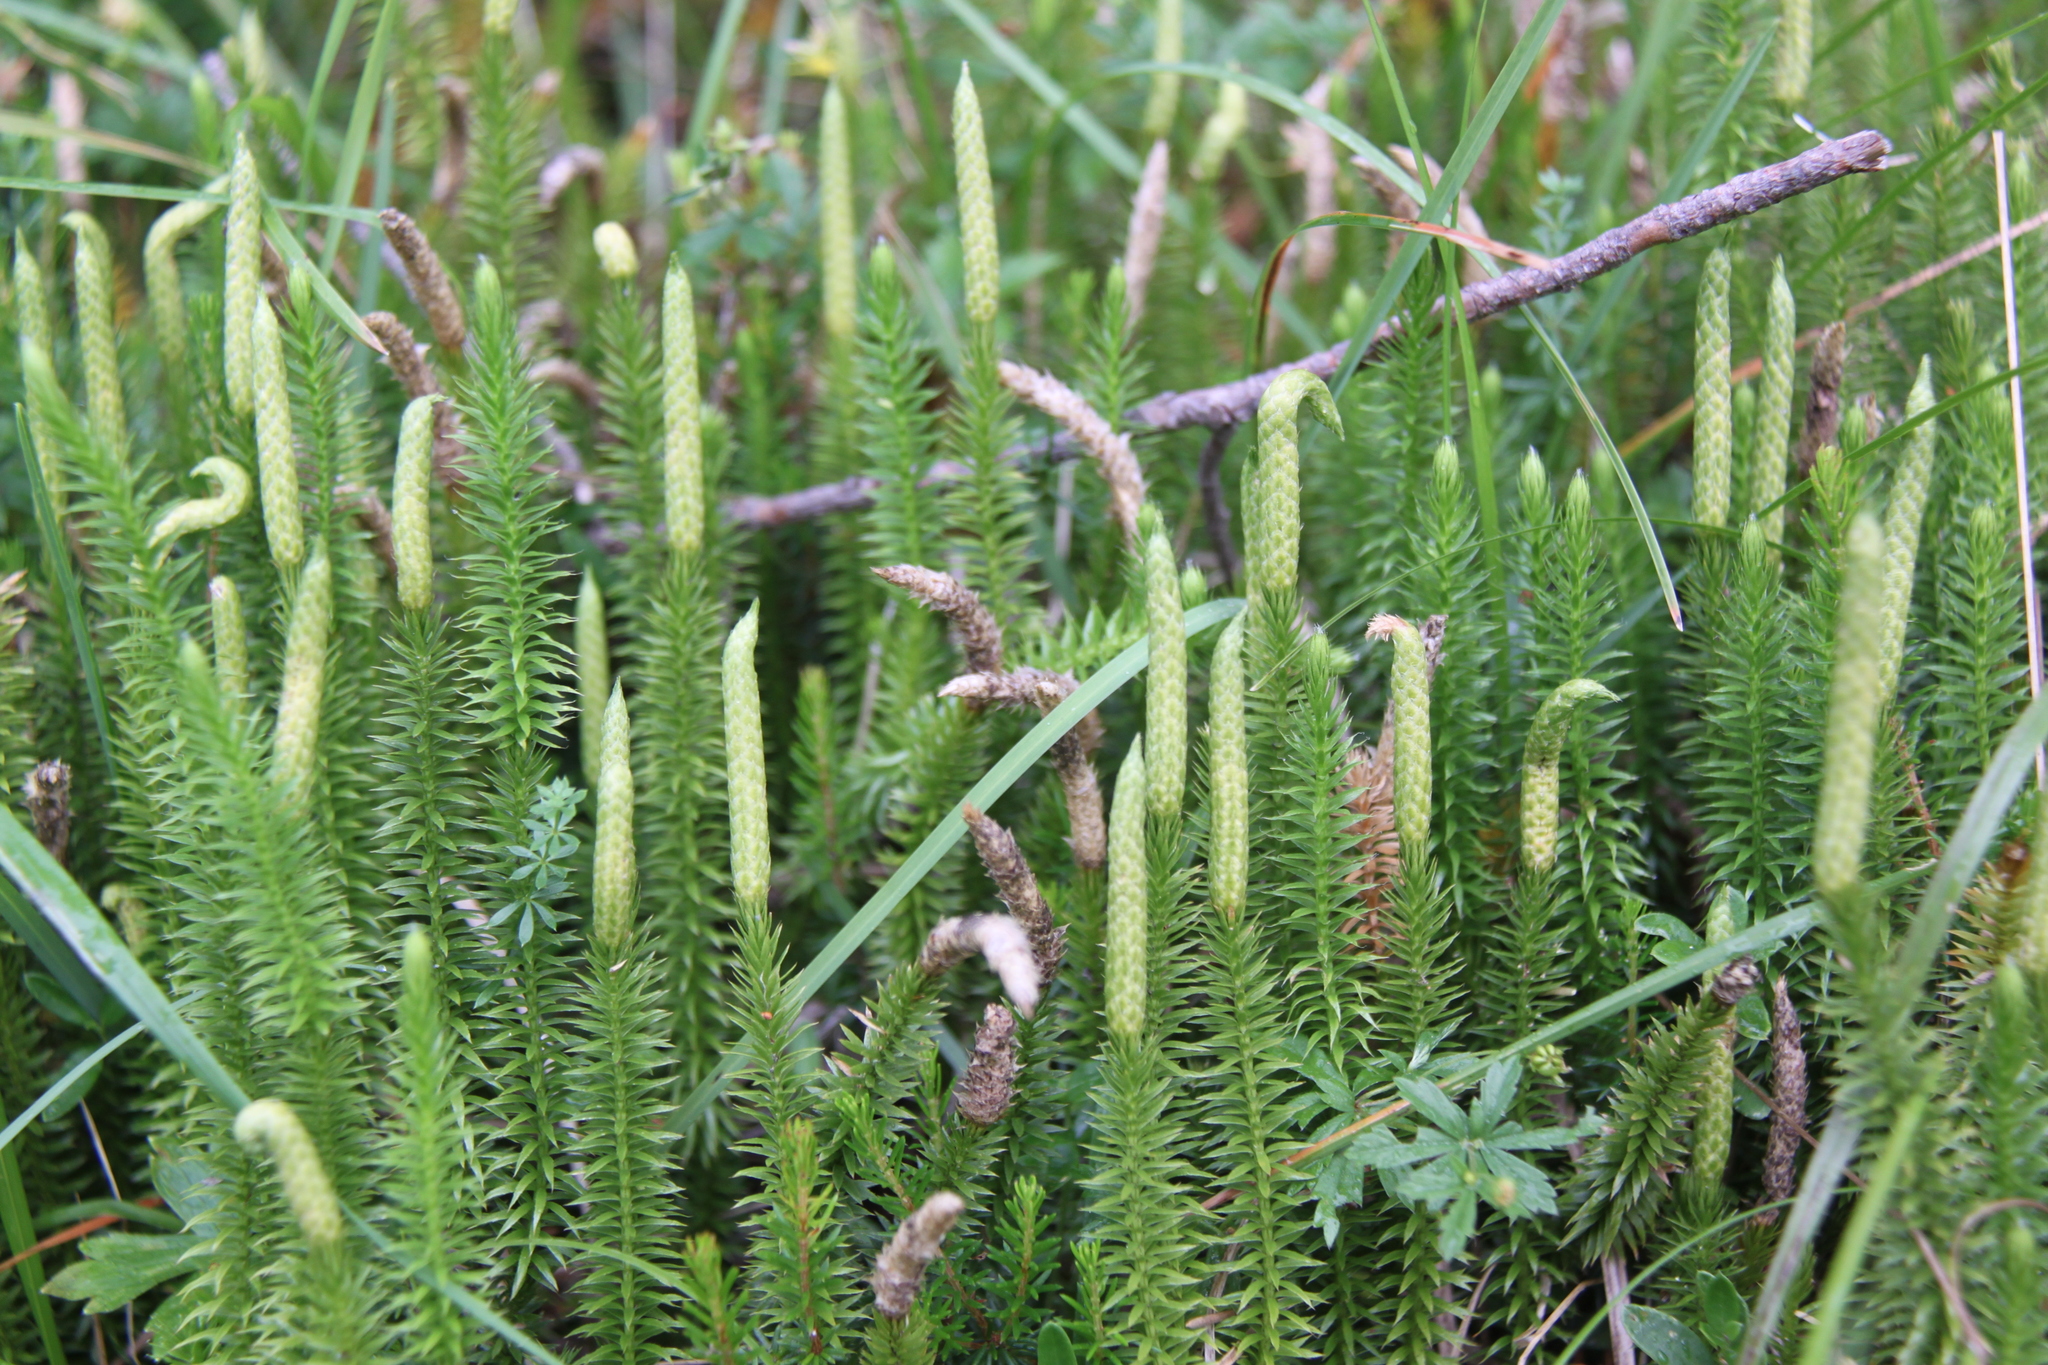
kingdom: Plantae
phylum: Tracheophyta
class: Lycopodiopsida
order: Lycopodiales
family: Lycopodiaceae
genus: Spinulum
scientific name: Spinulum annotinum
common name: Interrupted club-moss
